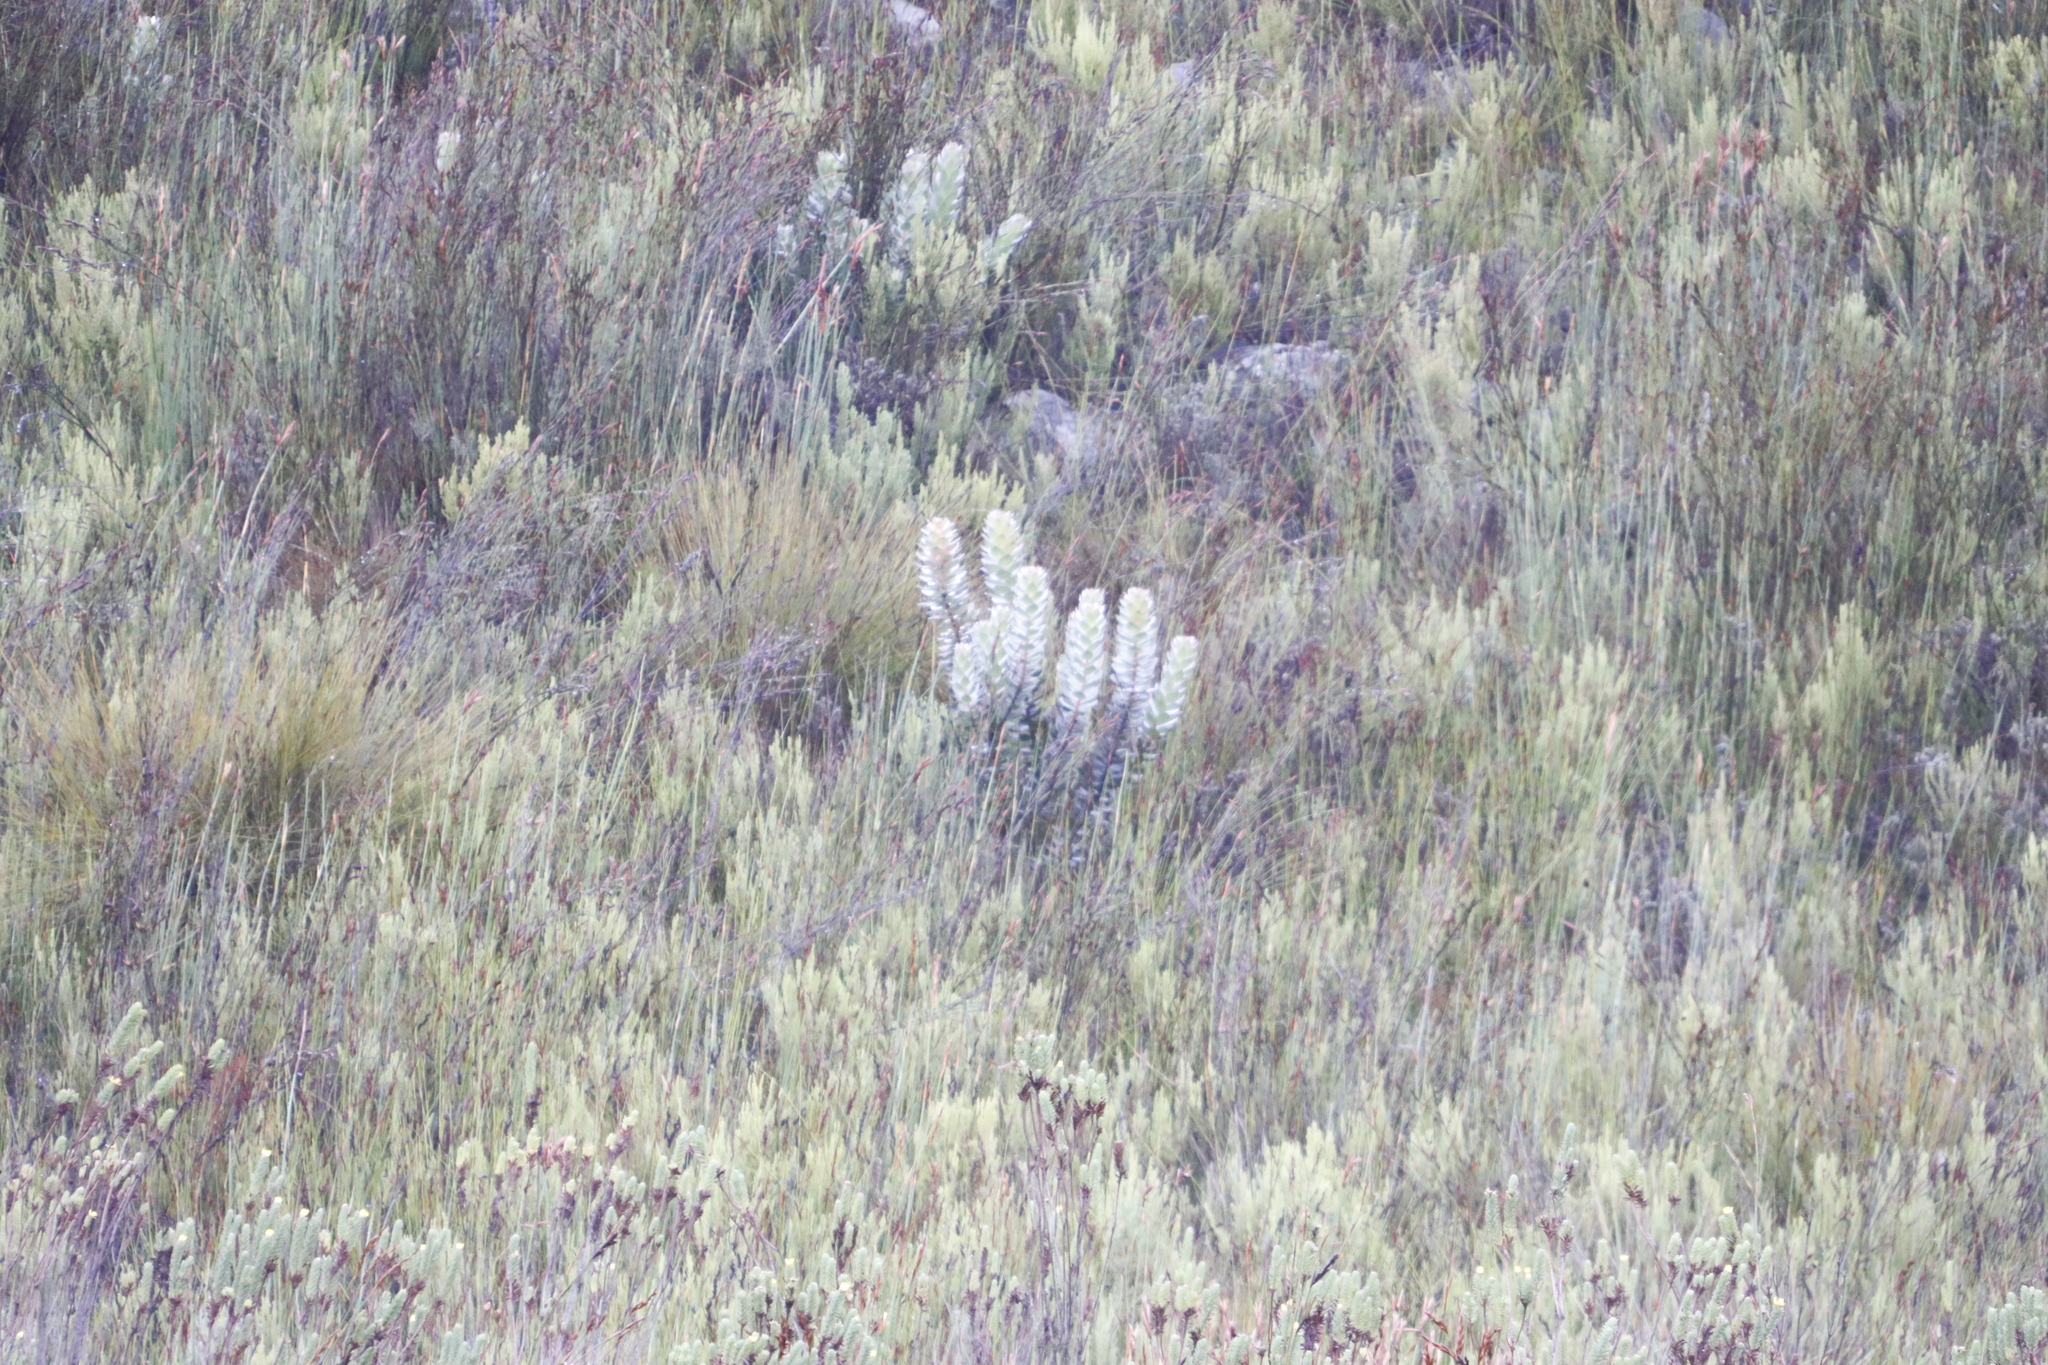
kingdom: Plantae
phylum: Tracheophyta
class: Magnoliopsida
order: Proteales
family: Proteaceae
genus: Mimetes
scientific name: Mimetes argenteus
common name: Silver pagoda
